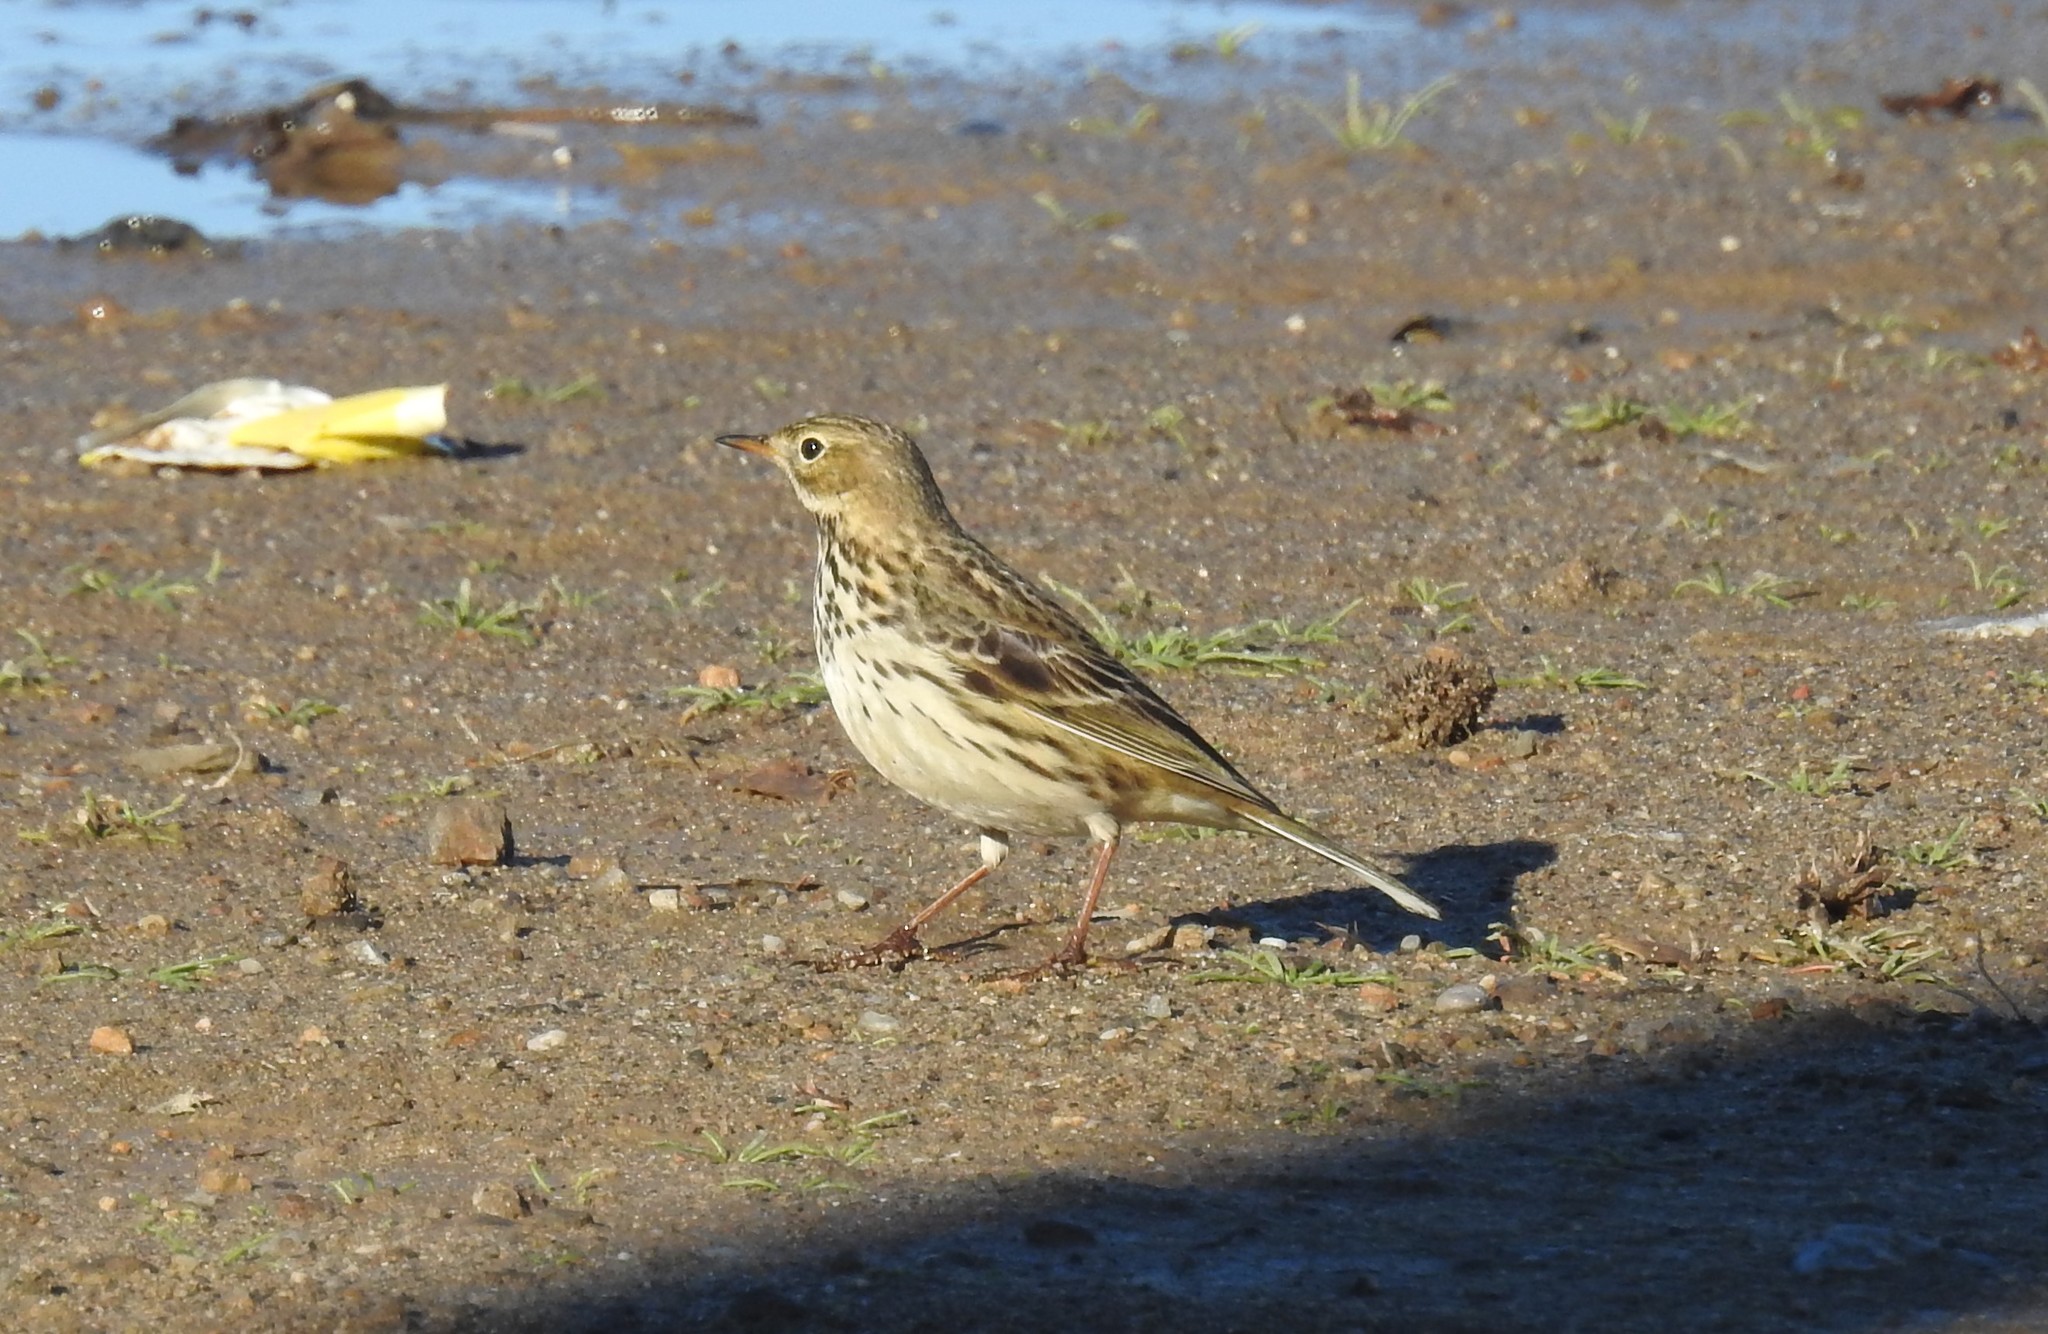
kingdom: Animalia
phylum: Chordata
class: Aves
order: Passeriformes
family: Motacillidae
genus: Anthus
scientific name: Anthus pratensis
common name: Meadow pipit
